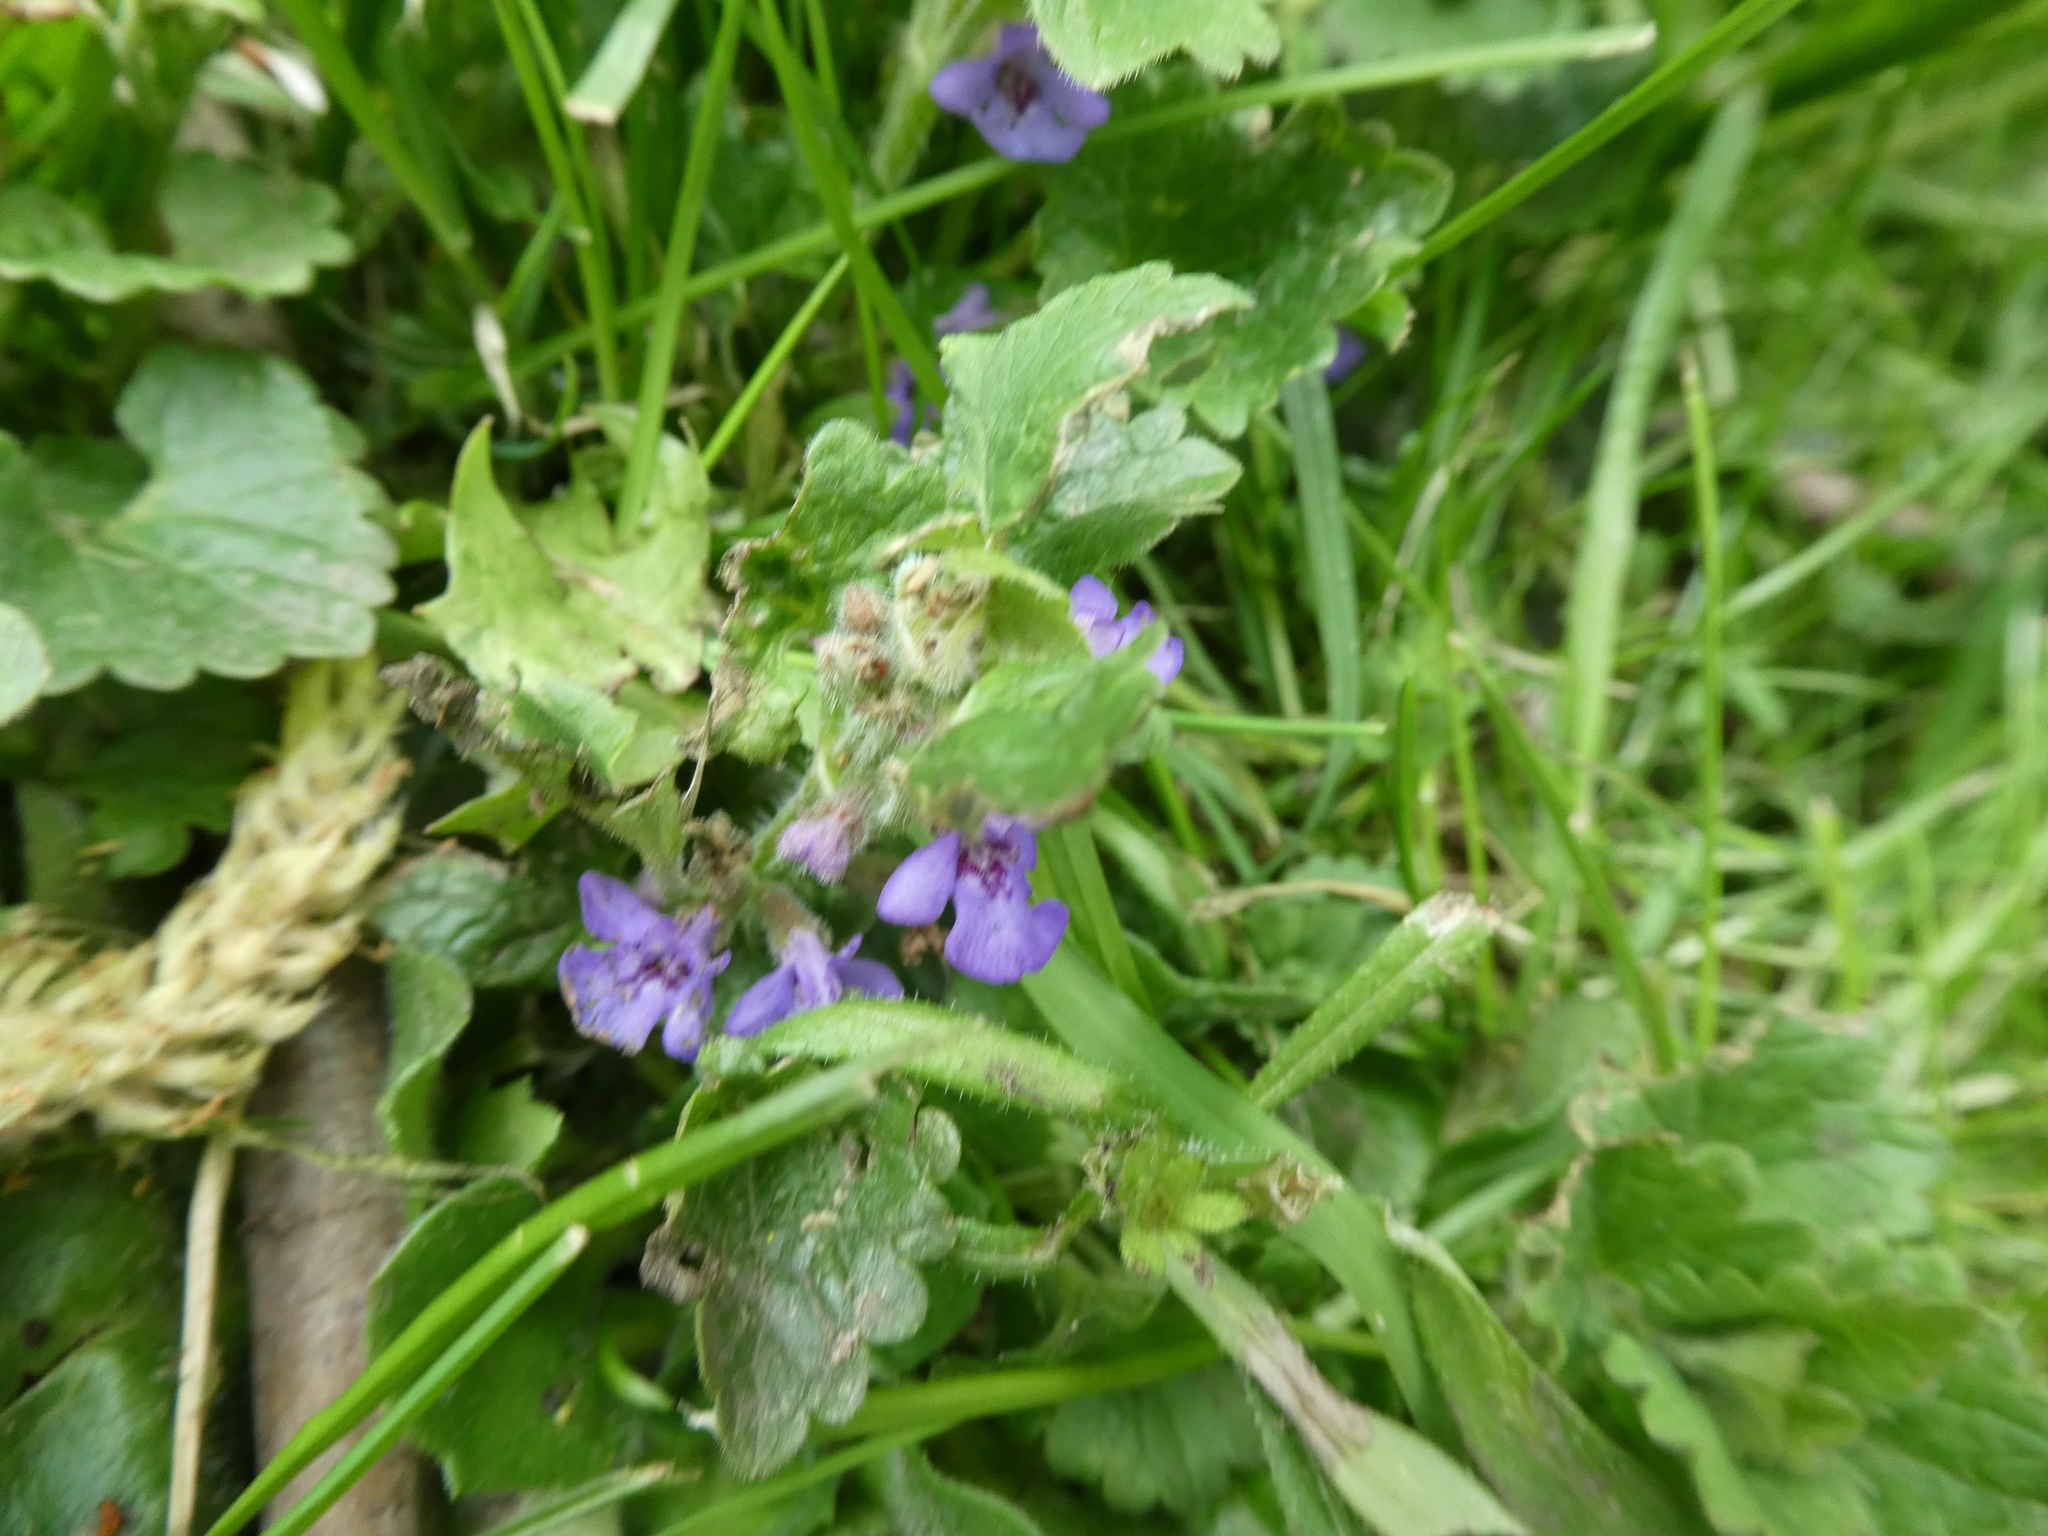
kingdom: Plantae
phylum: Tracheophyta
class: Magnoliopsida
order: Lamiales
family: Lamiaceae
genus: Glechoma
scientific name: Glechoma hederacea
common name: Ground ivy
